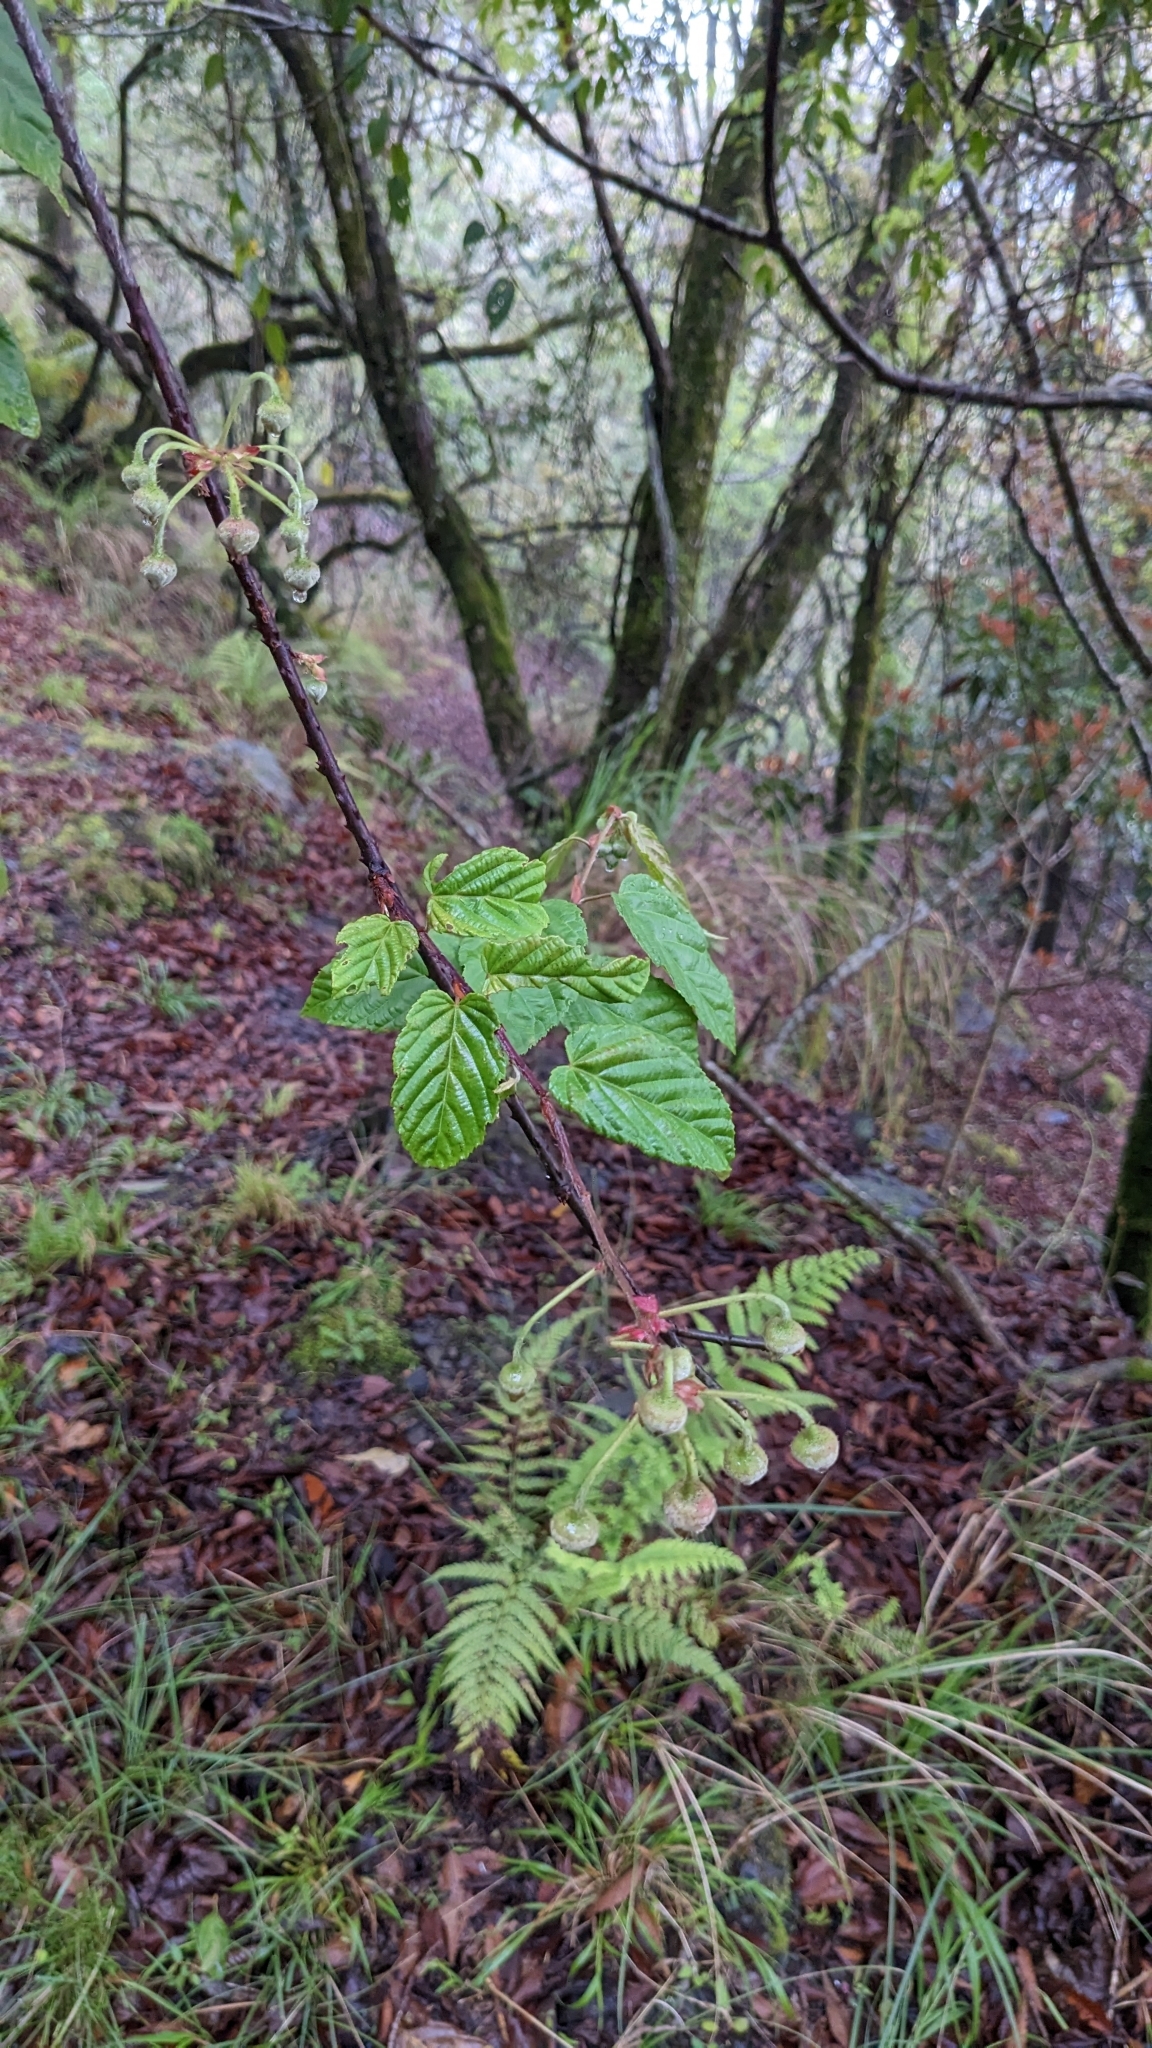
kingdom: Plantae
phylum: Tracheophyta
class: Magnoliopsida
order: Rosales
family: Rosaceae
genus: Rubus
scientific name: Rubus swinhoei
